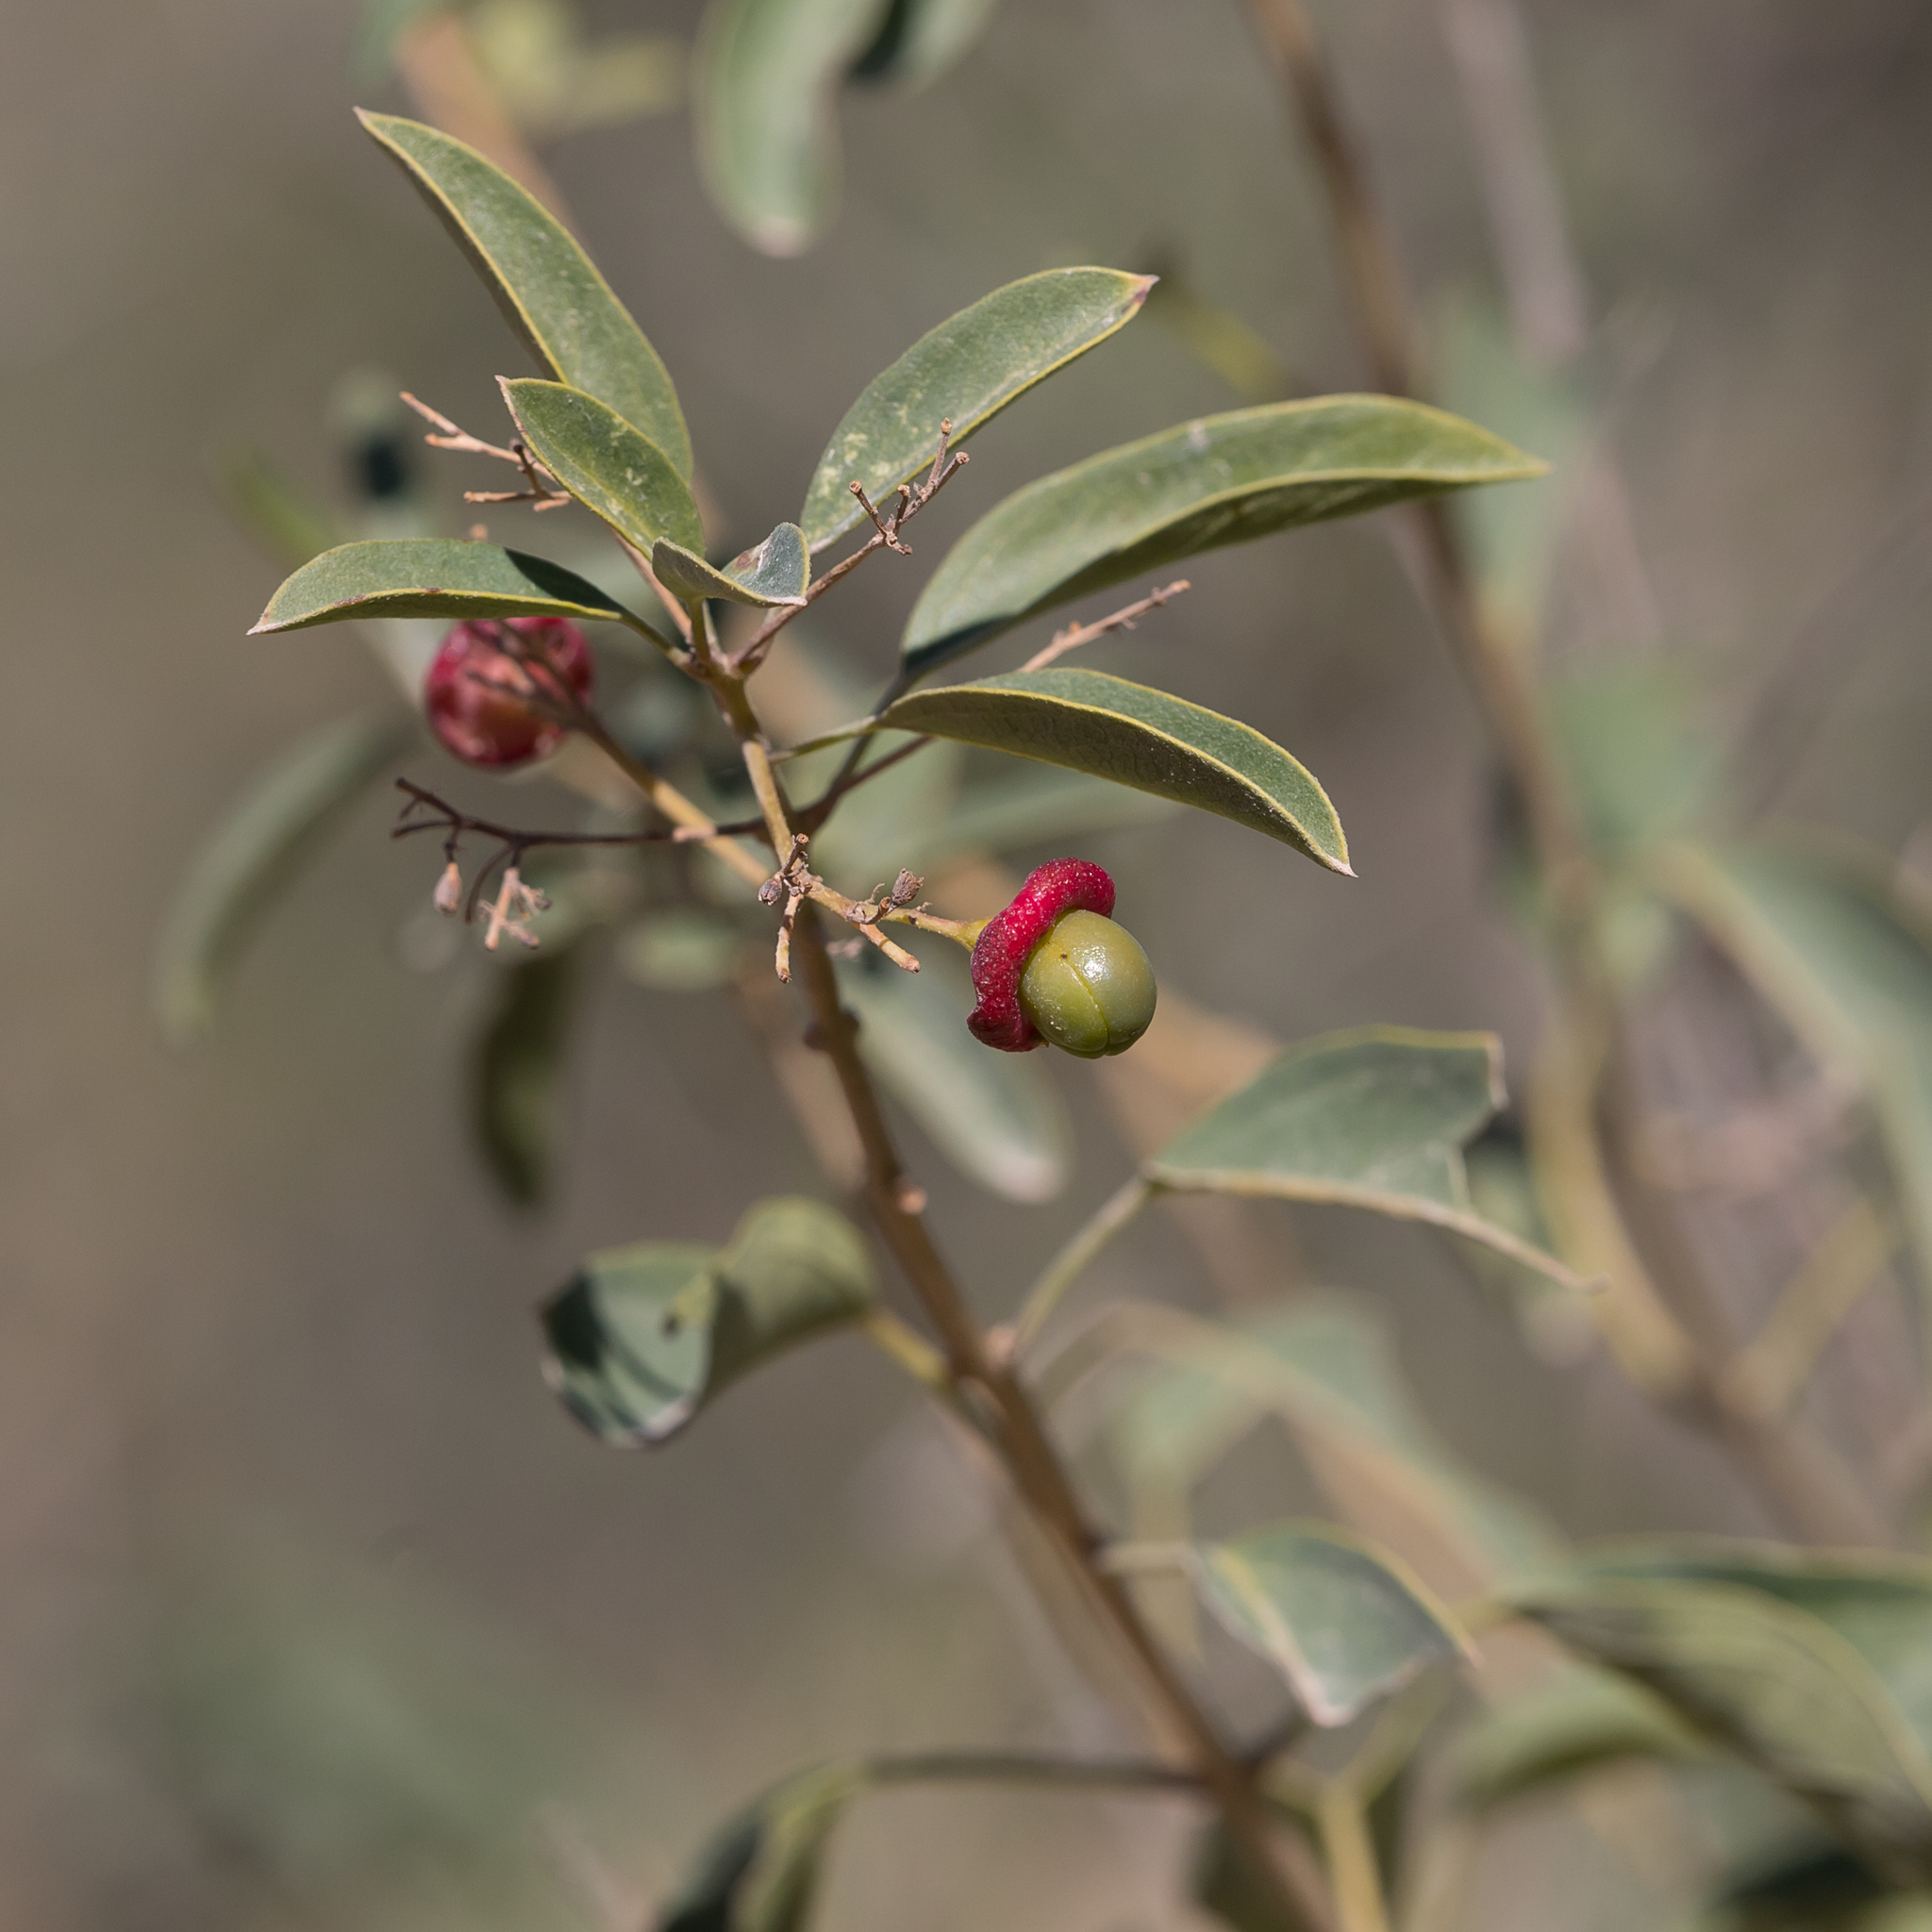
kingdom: Plantae
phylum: Tracheophyta
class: Magnoliopsida
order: Lamiales
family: Lamiaceae
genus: Clerodendrum
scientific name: Clerodendrum floribundum
